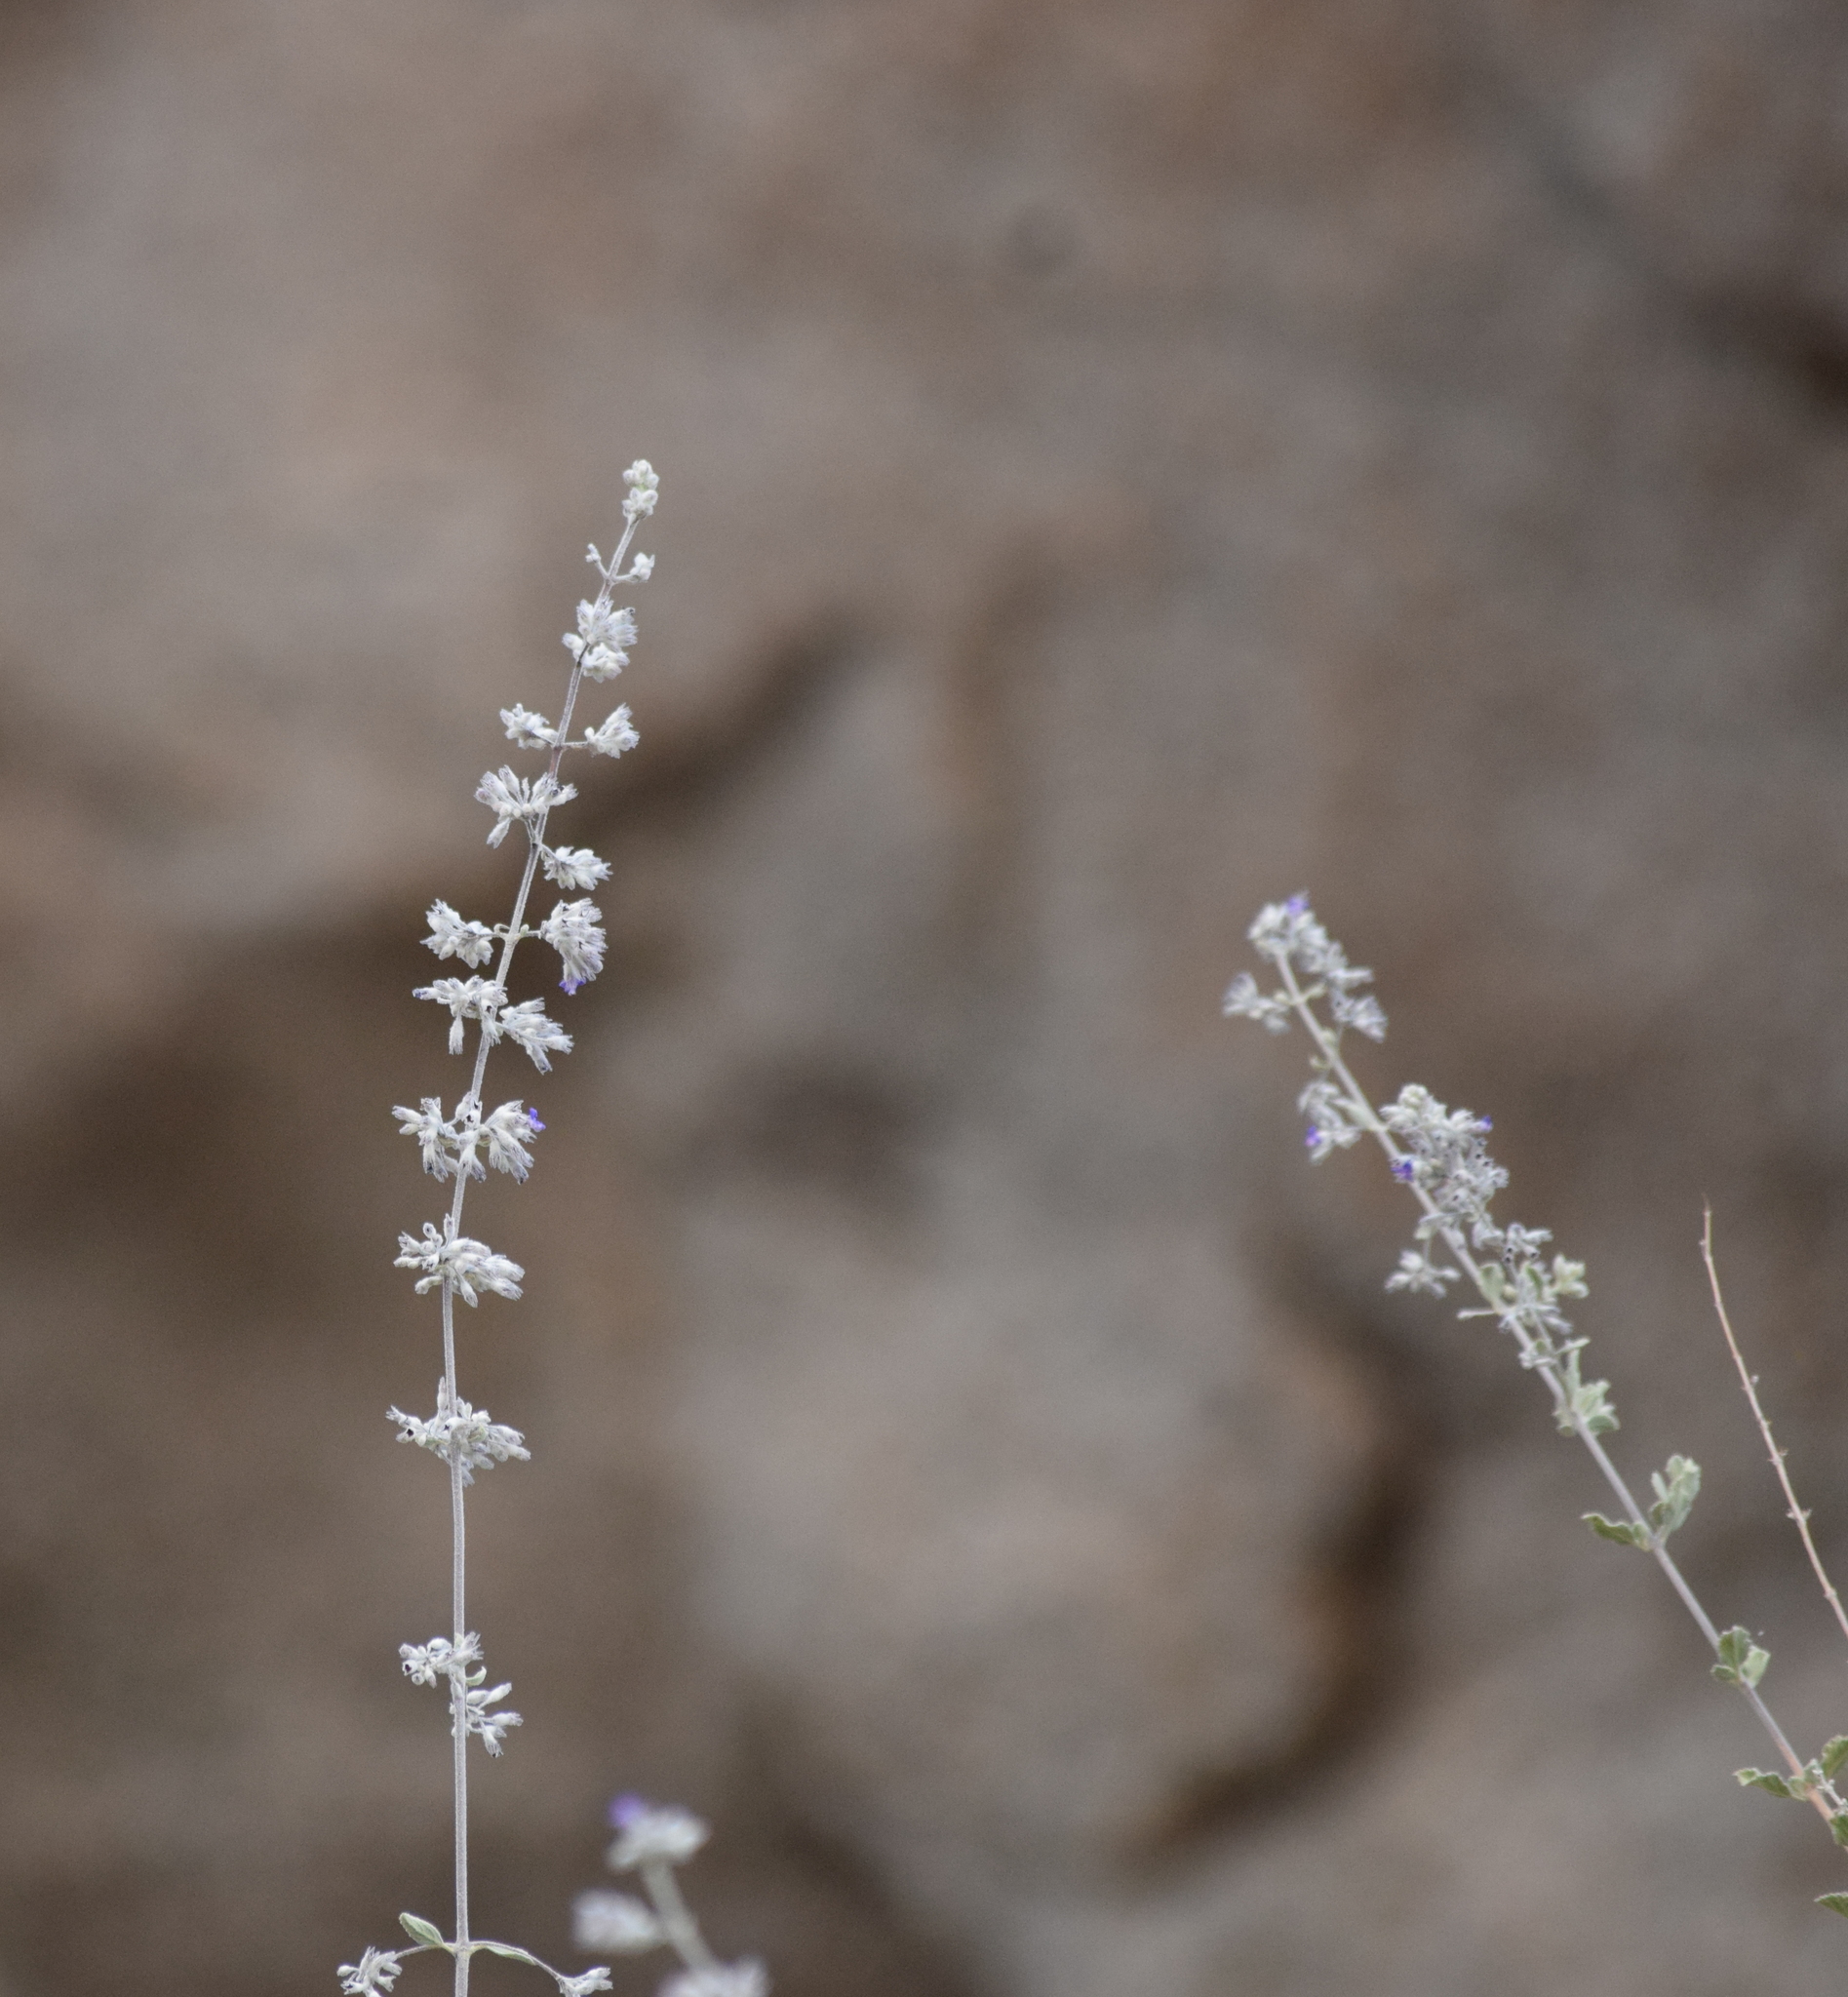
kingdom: Plantae
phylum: Tracheophyta
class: Magnoliopsida
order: Lamiales
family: Lamiaceae
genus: Condea
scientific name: Condea emoryi
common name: Chia
